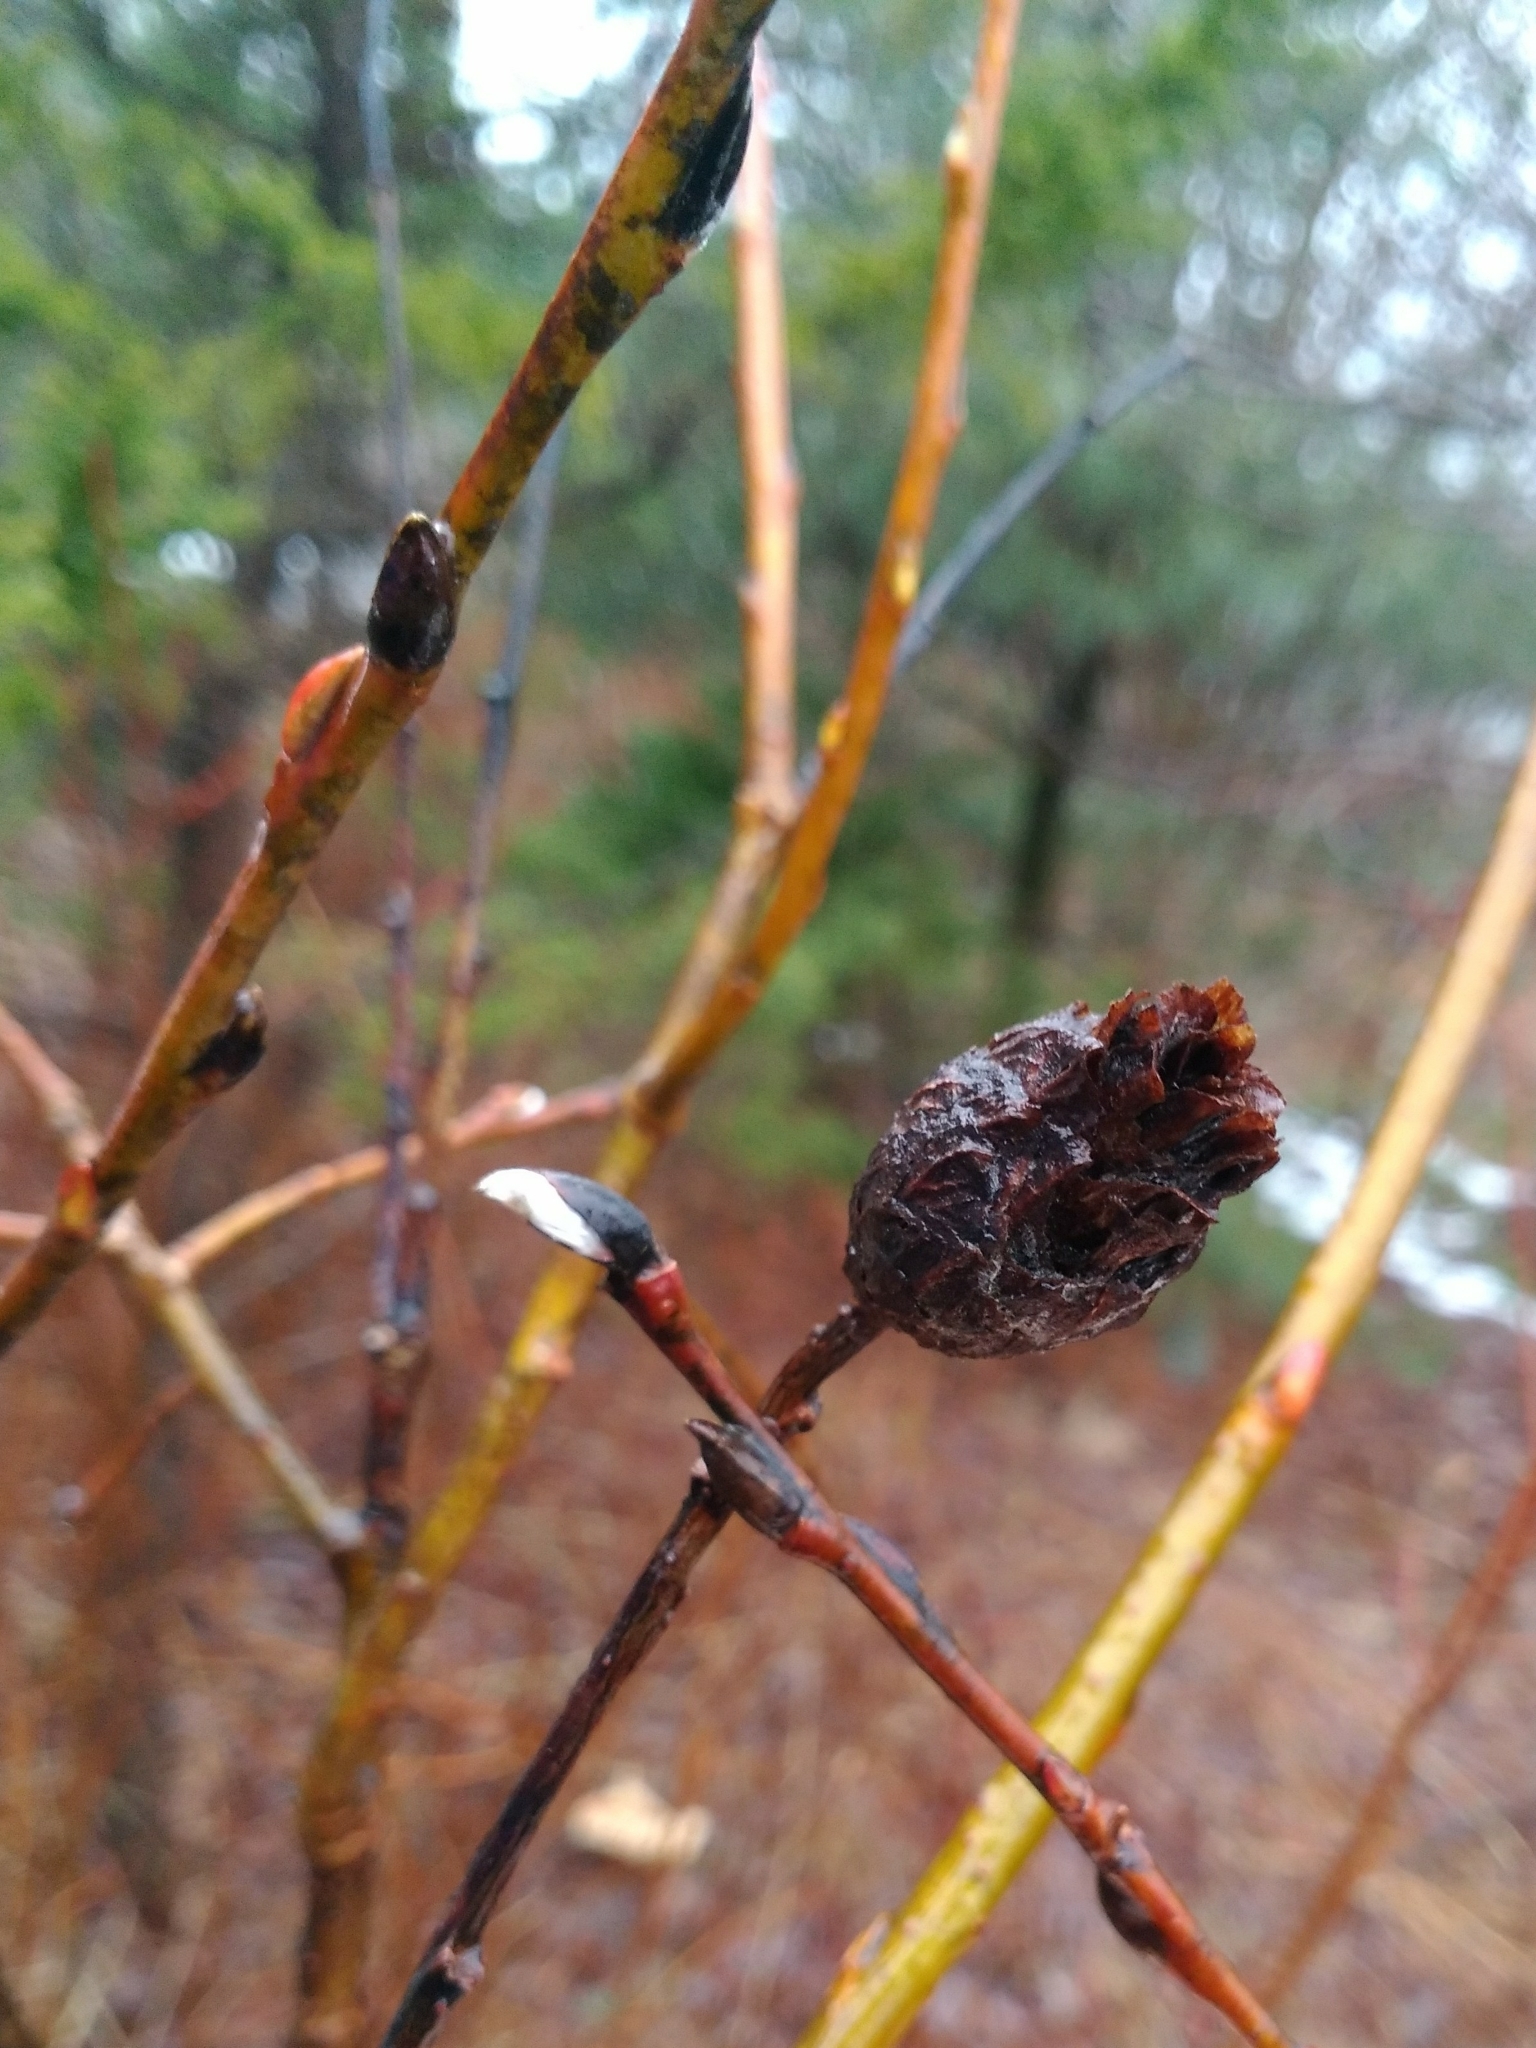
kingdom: Animalia
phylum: Arthropoda
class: Insecta
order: Diptera
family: Cecidomyiidae
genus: Rabdophaga
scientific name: Rabdophaga strobiloides
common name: Willow pinecone gall midge
